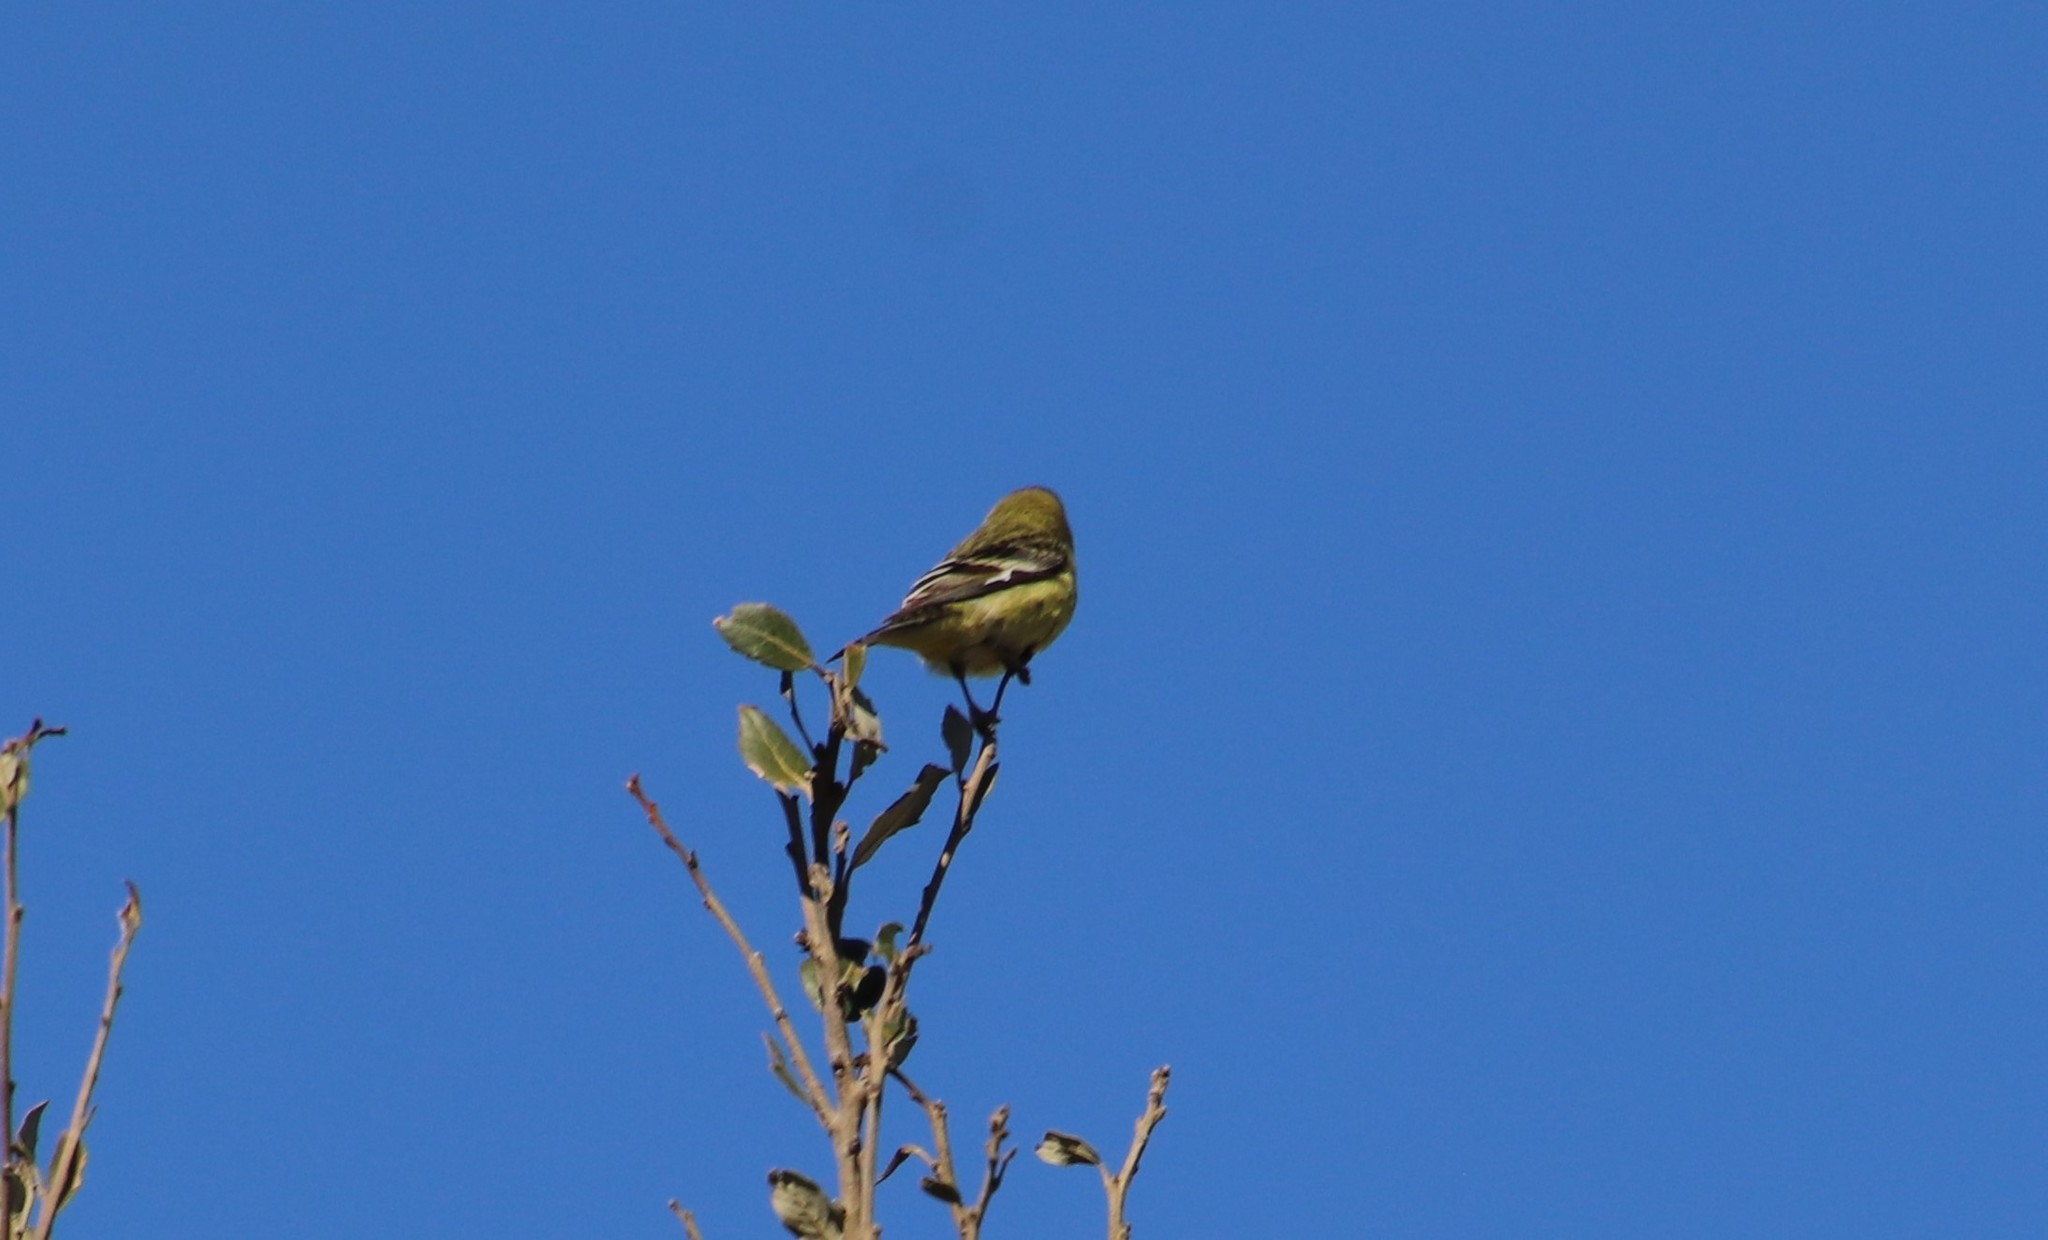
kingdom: Animalia
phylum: Chordata
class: Aves
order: Passeriformes
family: Fringillidae
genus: Spinus
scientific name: Spinus psaltria
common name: Lesser goldfinch
